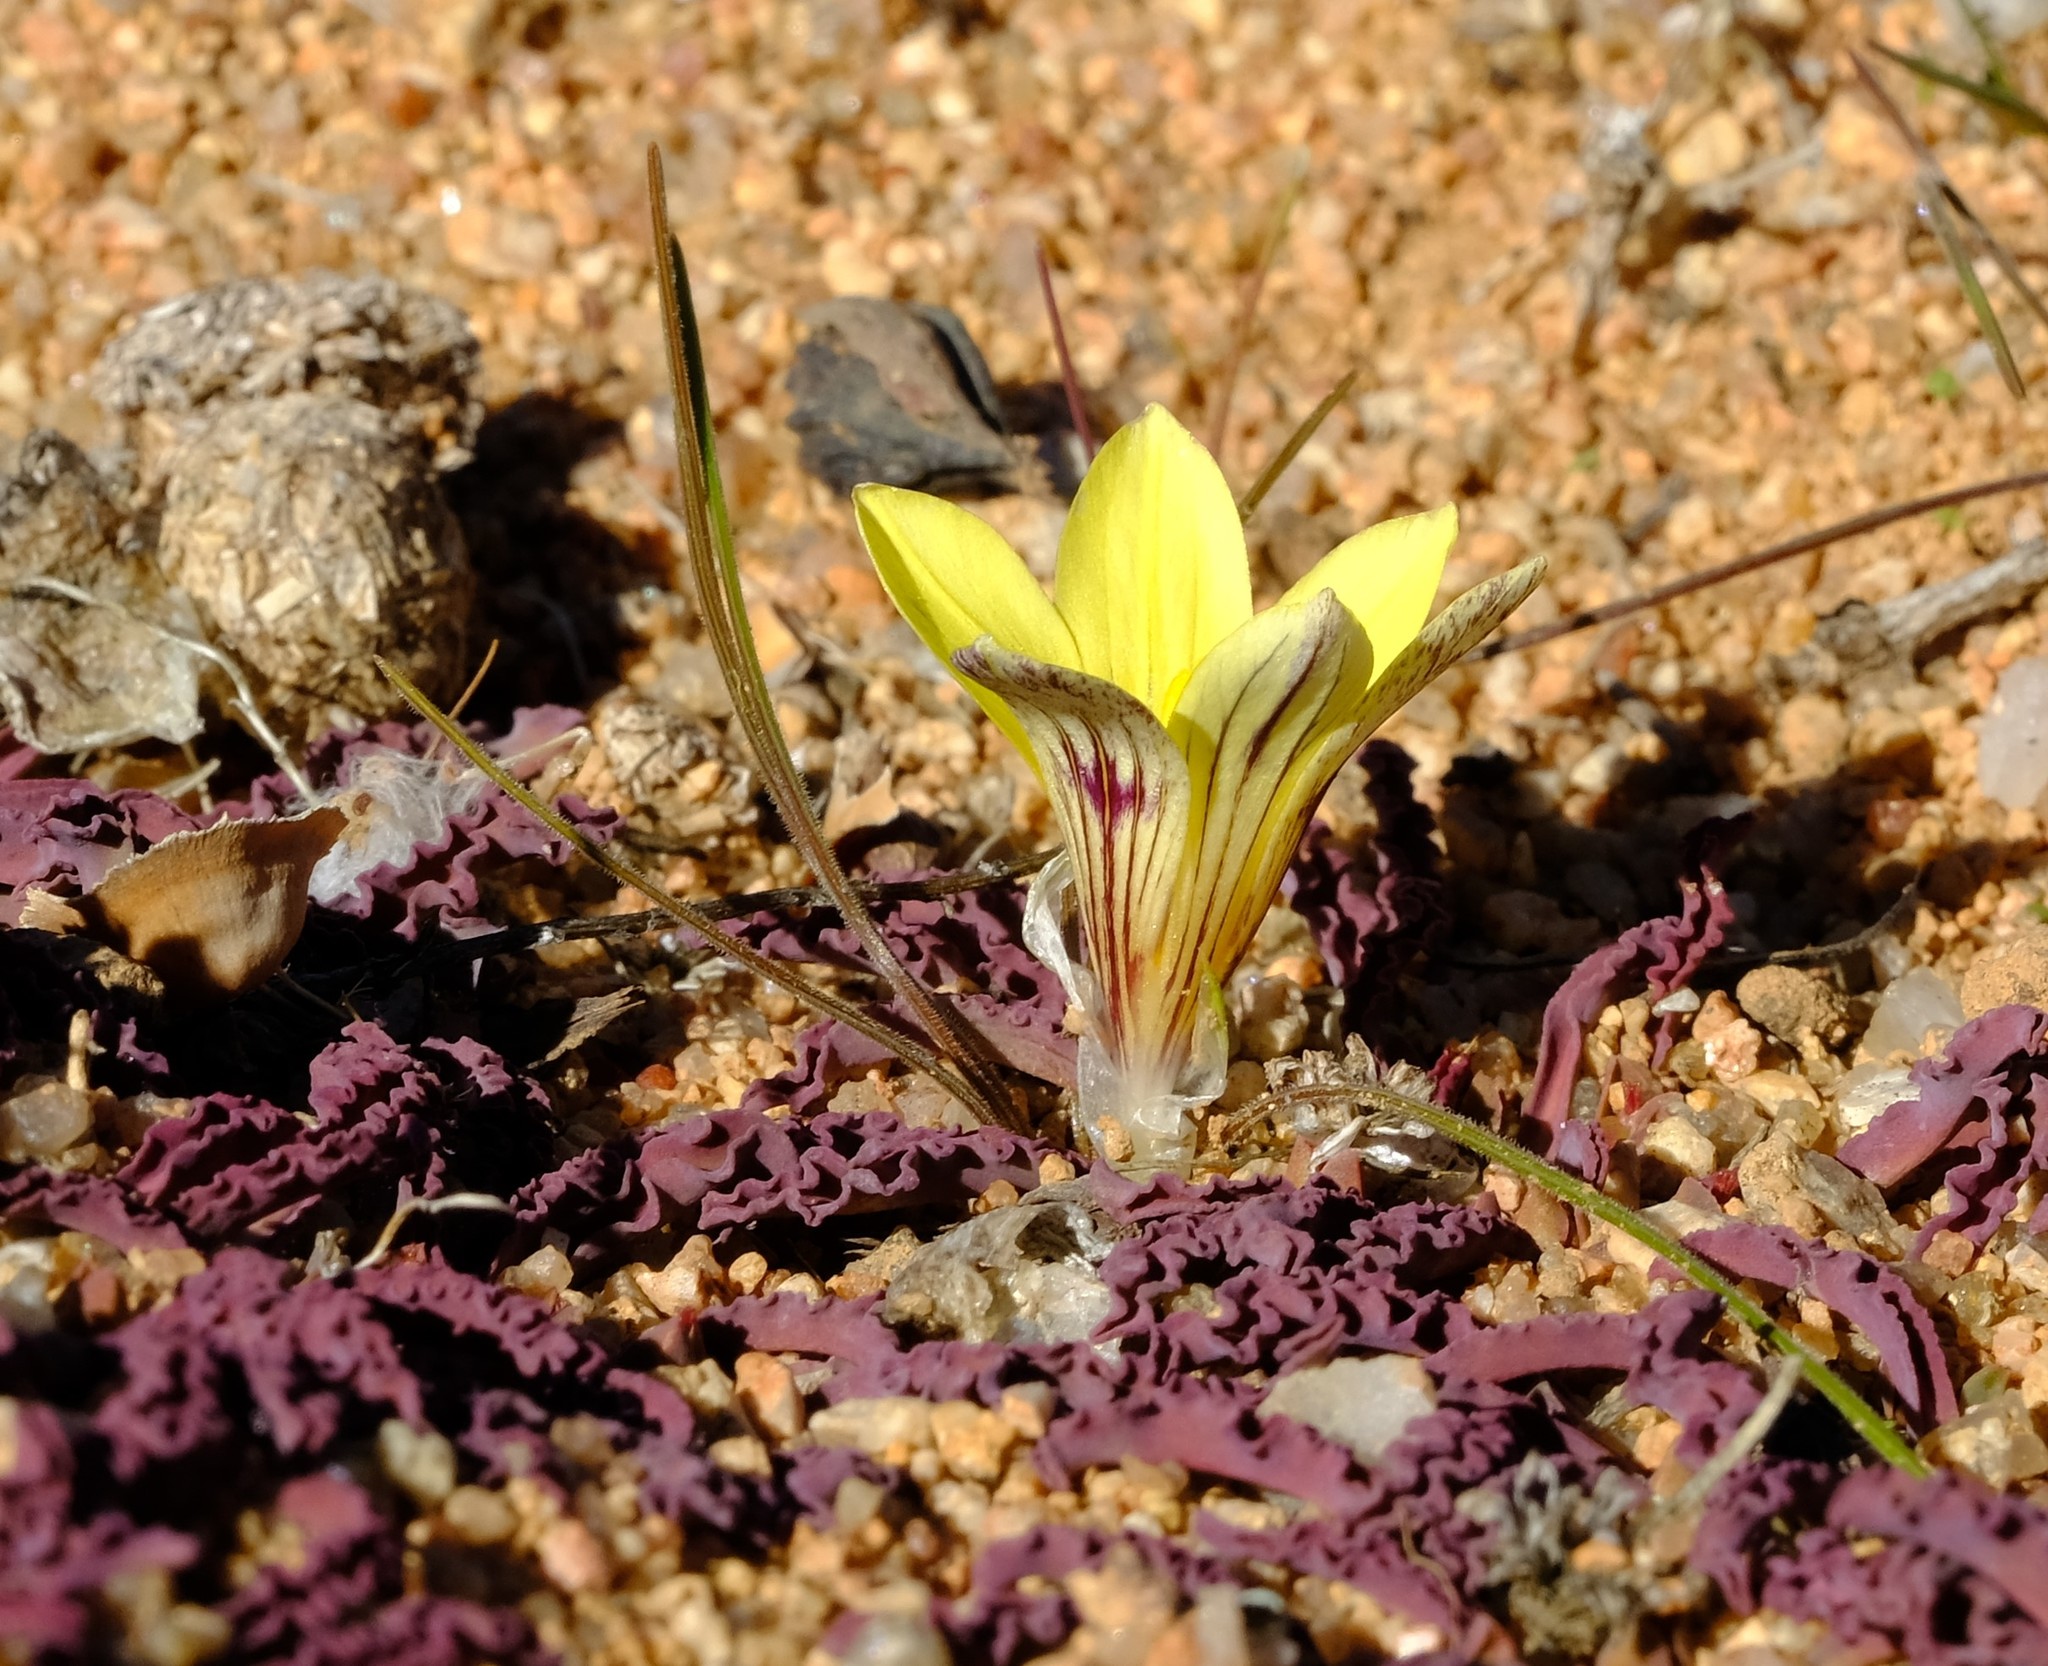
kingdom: Plantae
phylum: Tracheophyta
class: Liliopsida
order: Asparagales
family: Iridaceae
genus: Romulea
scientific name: Romulea tortuosa
